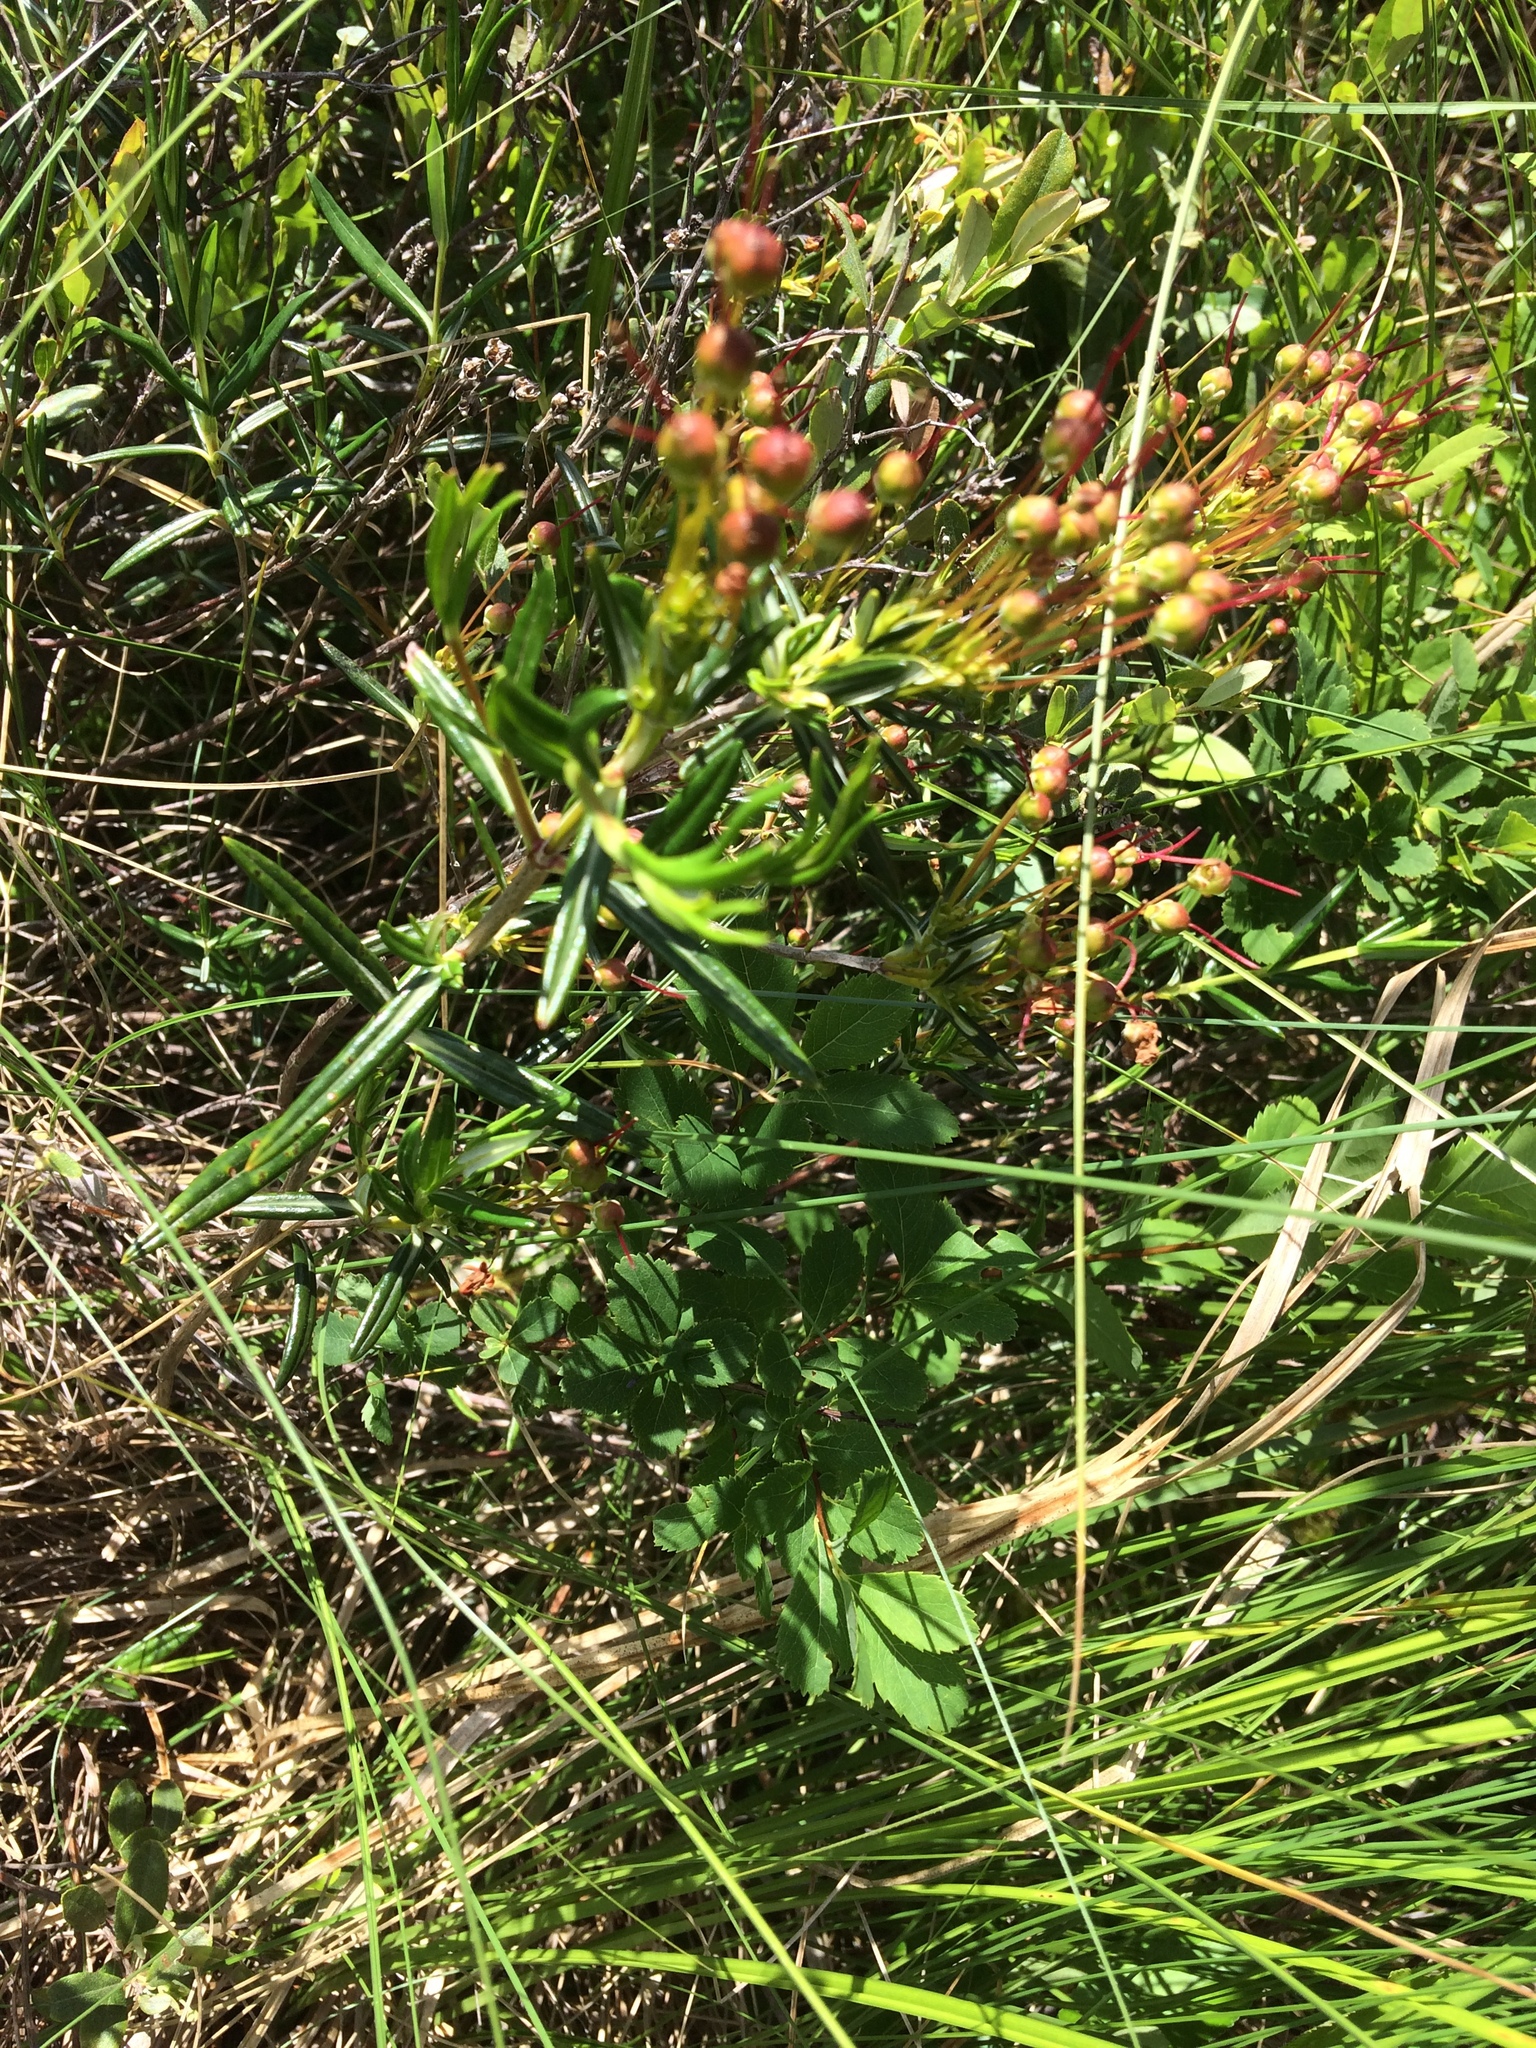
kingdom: Plantae
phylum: Tracheophyta
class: Magnoliopsida
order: Ericales
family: Ericaceae
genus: Kalmia
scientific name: Kalmia polifolia
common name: Bog-laurel
